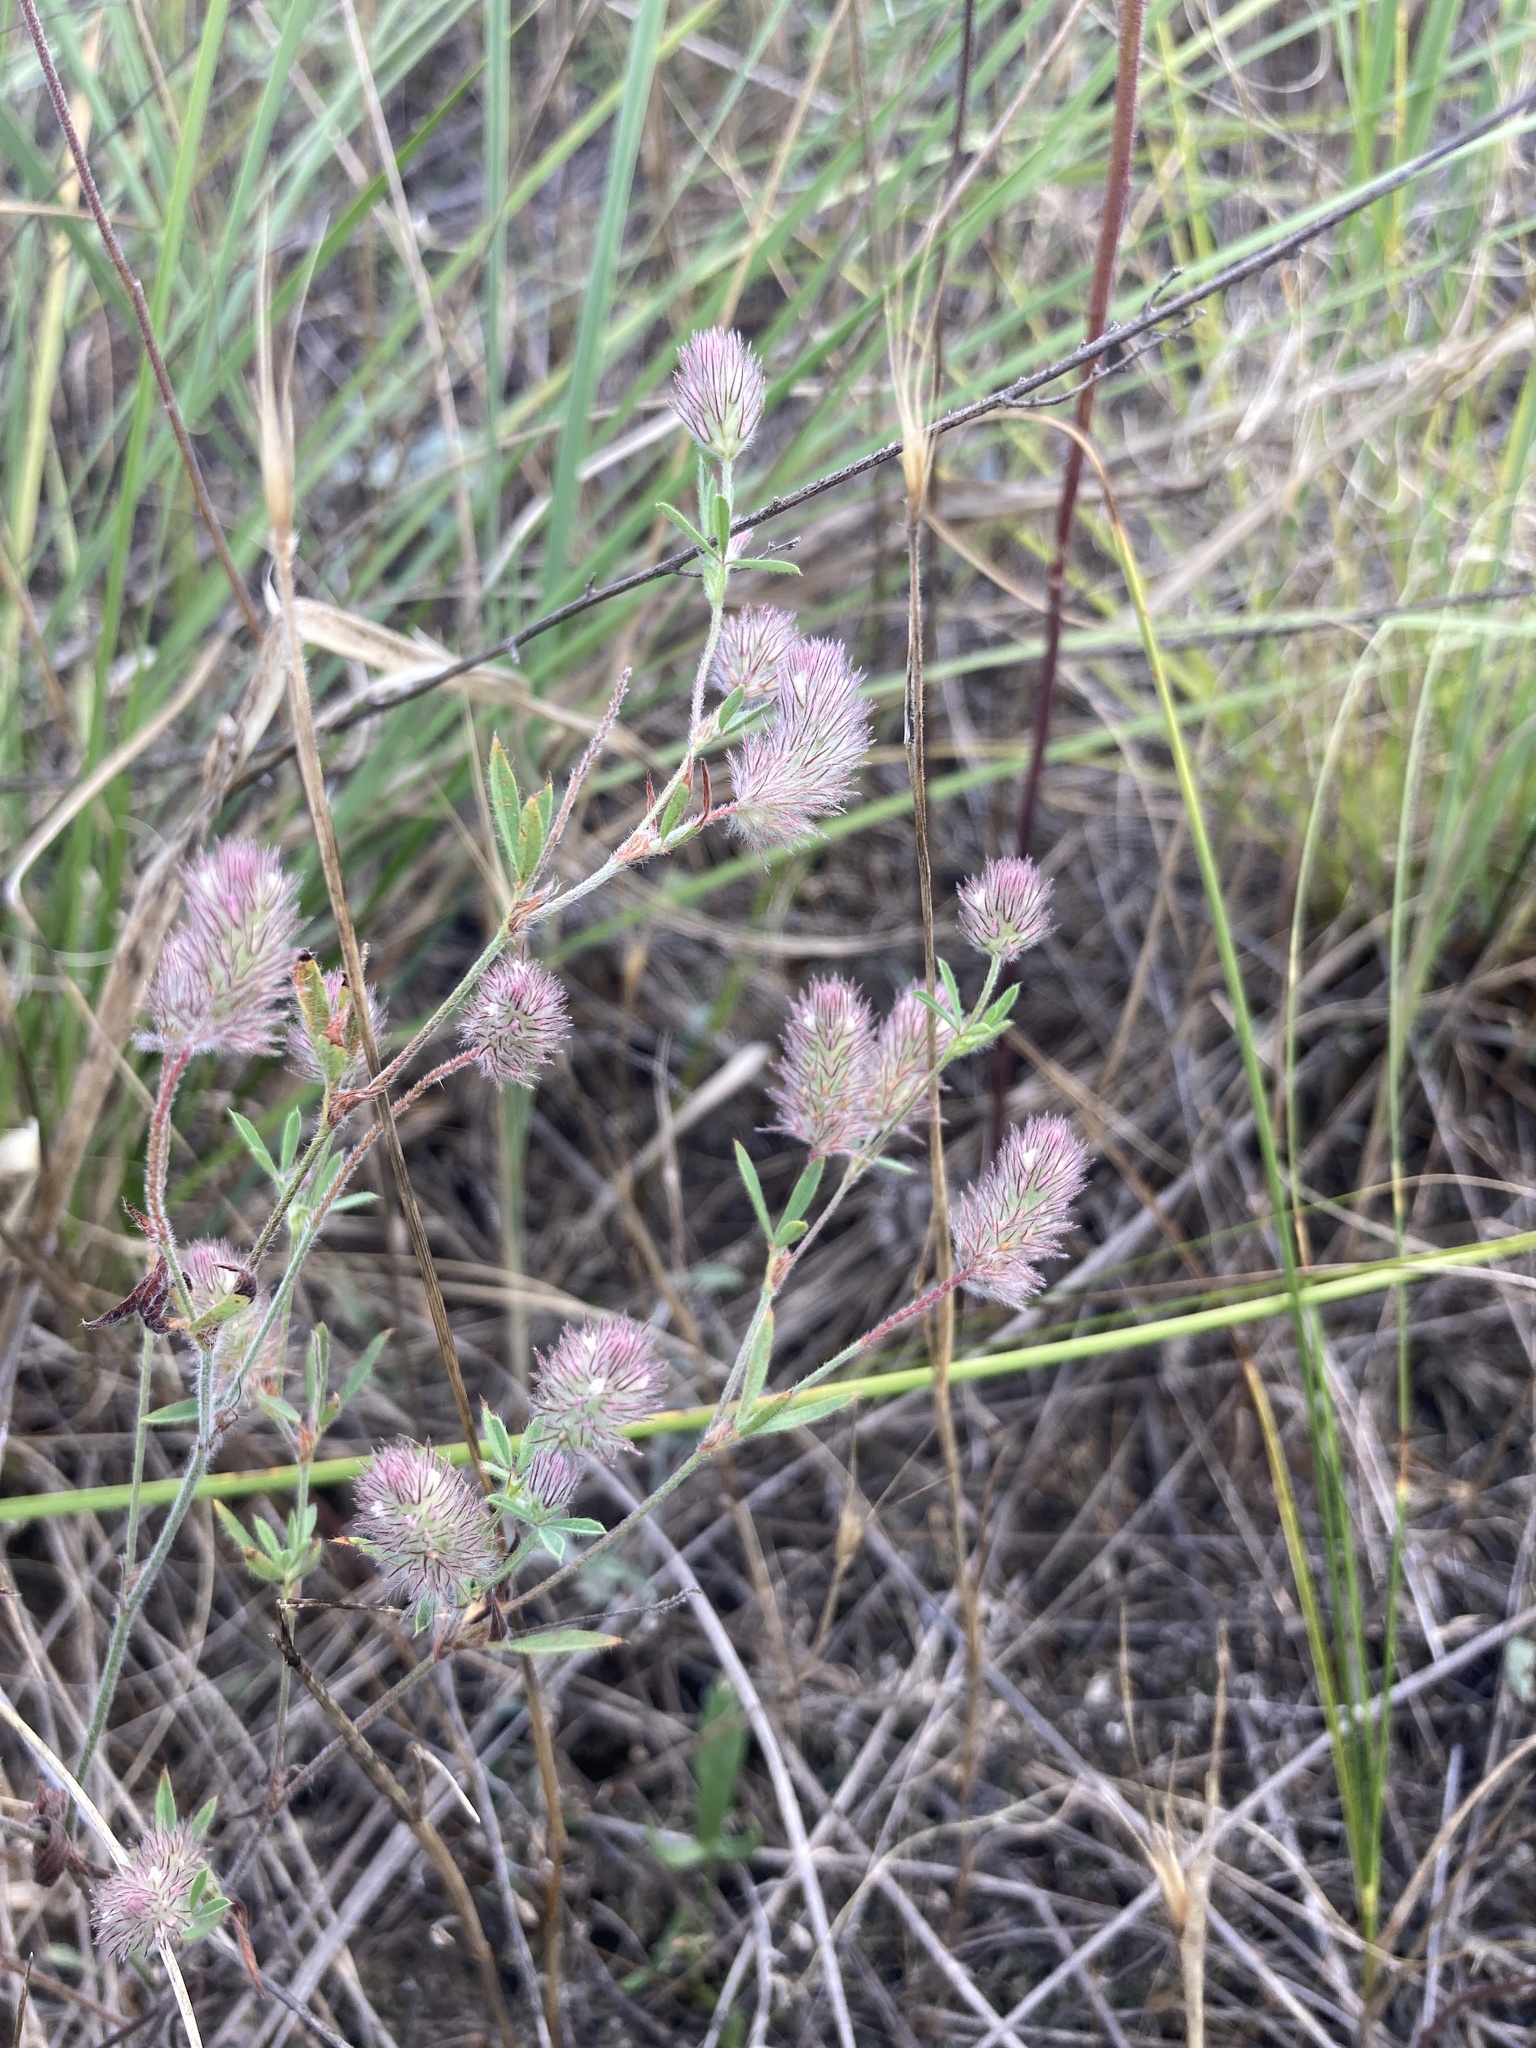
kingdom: Plantae
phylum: Tracheophyta
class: Magnoliopsida
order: Fabales
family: Fabaceae
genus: Trifolium
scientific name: Trifolium arvense
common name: Hare's-foot clover
